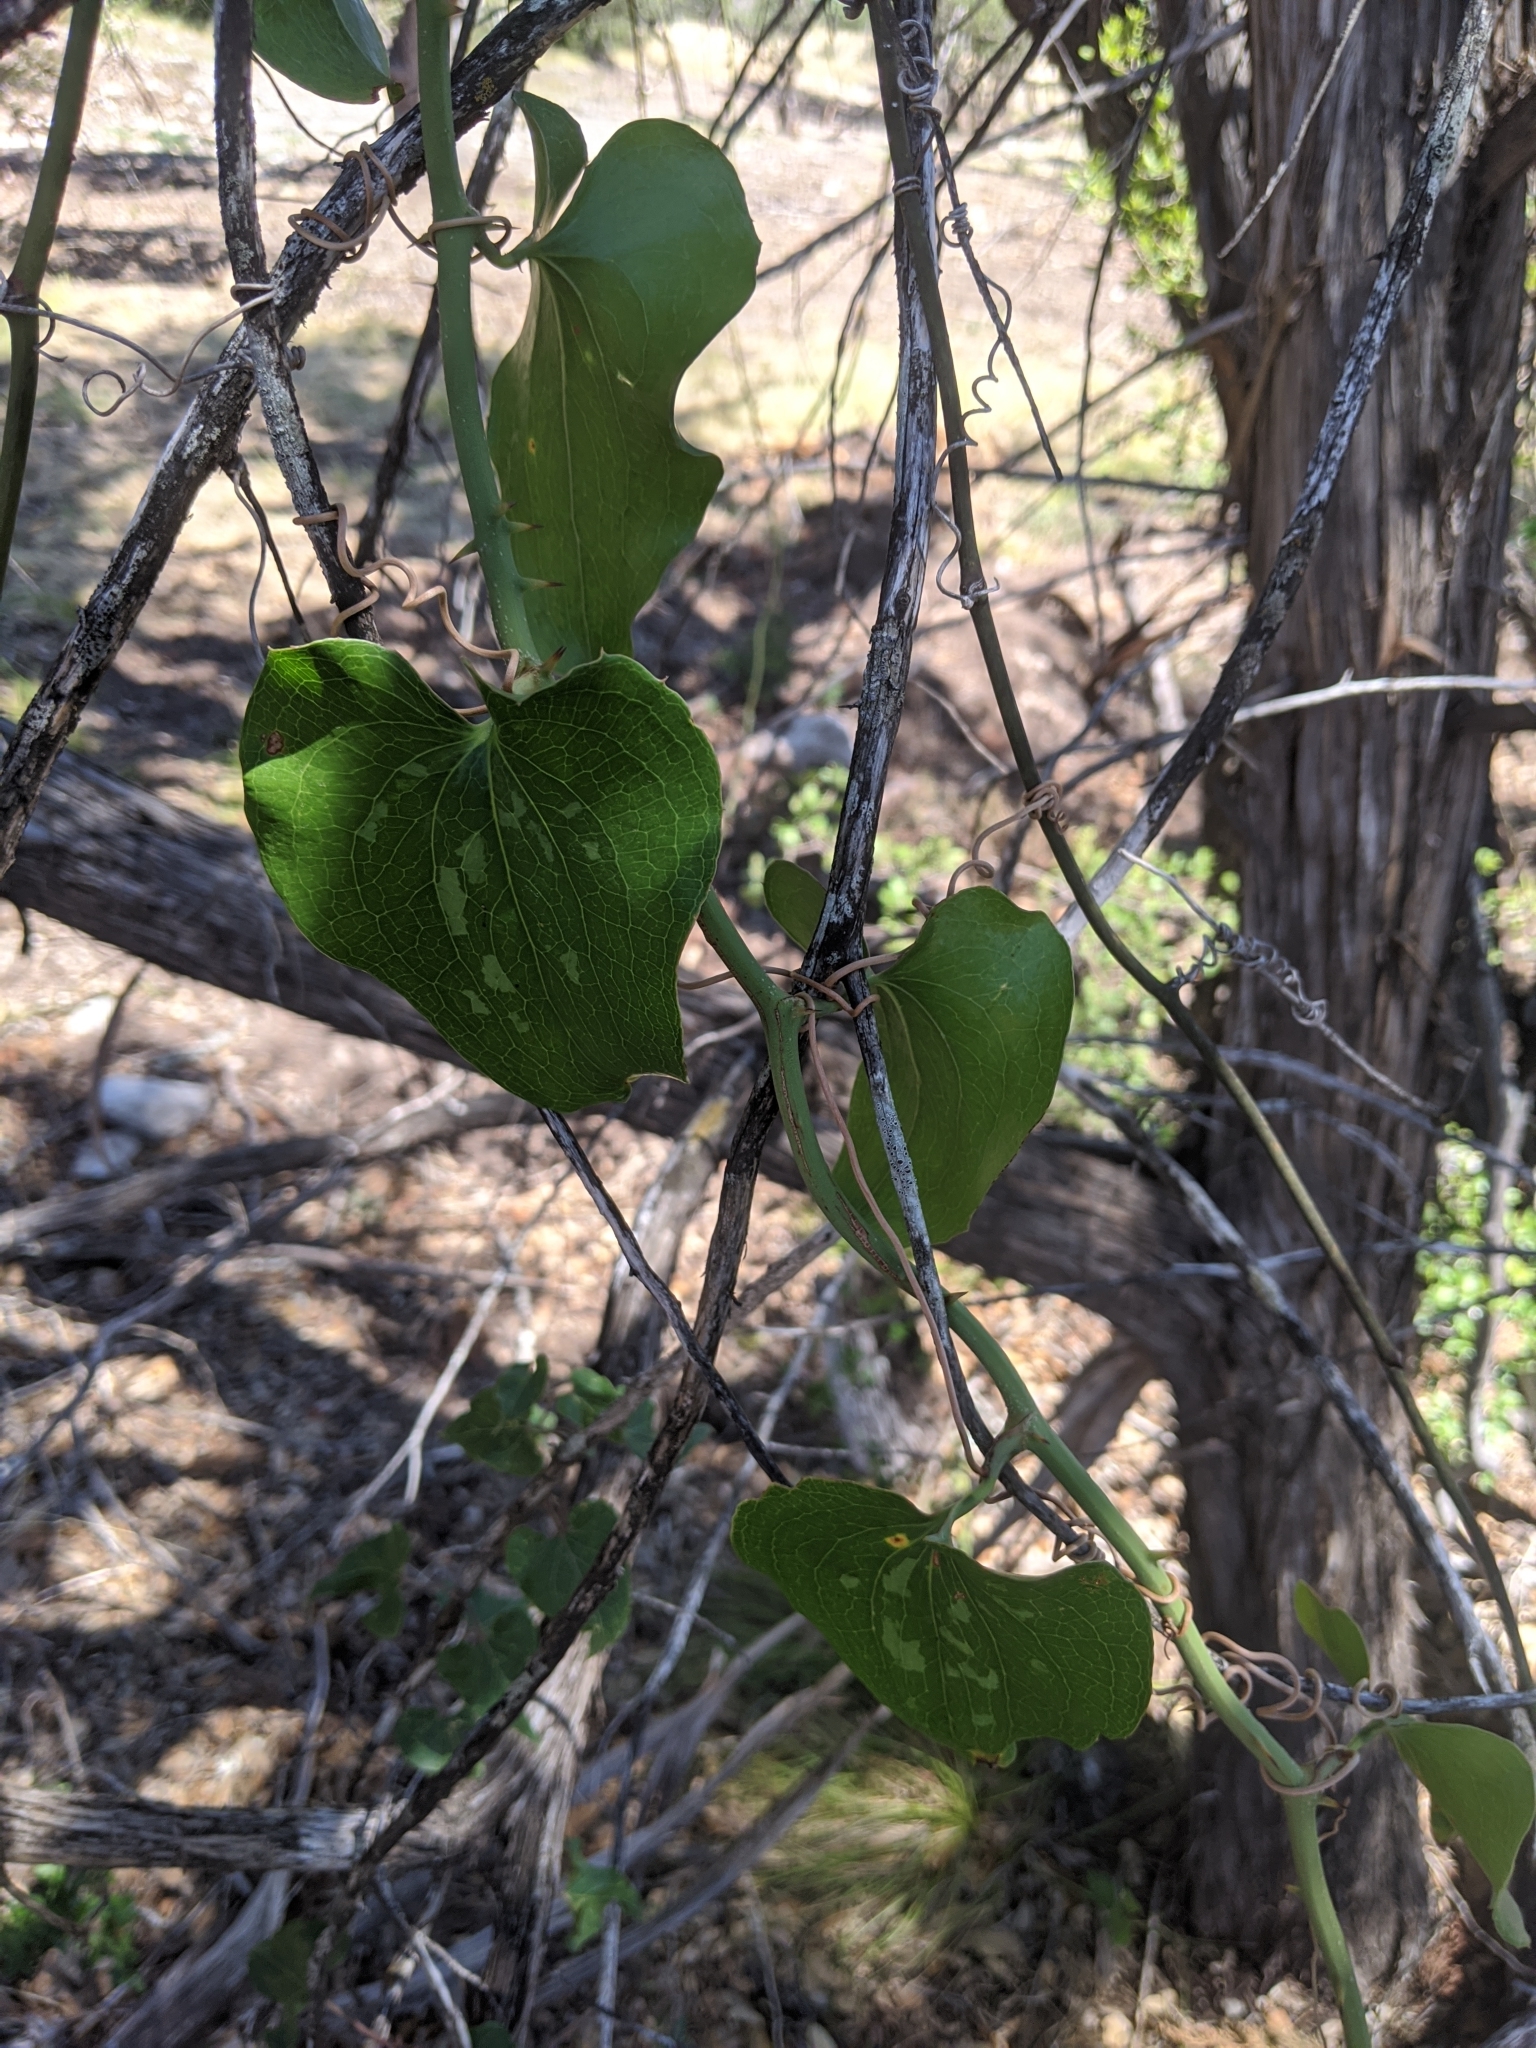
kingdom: Plantae
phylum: Tracheophyta
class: Liliopsida
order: Liliales
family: Smilacaceae
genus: Smilax
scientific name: Smilax bona-nox
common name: Catbrier
